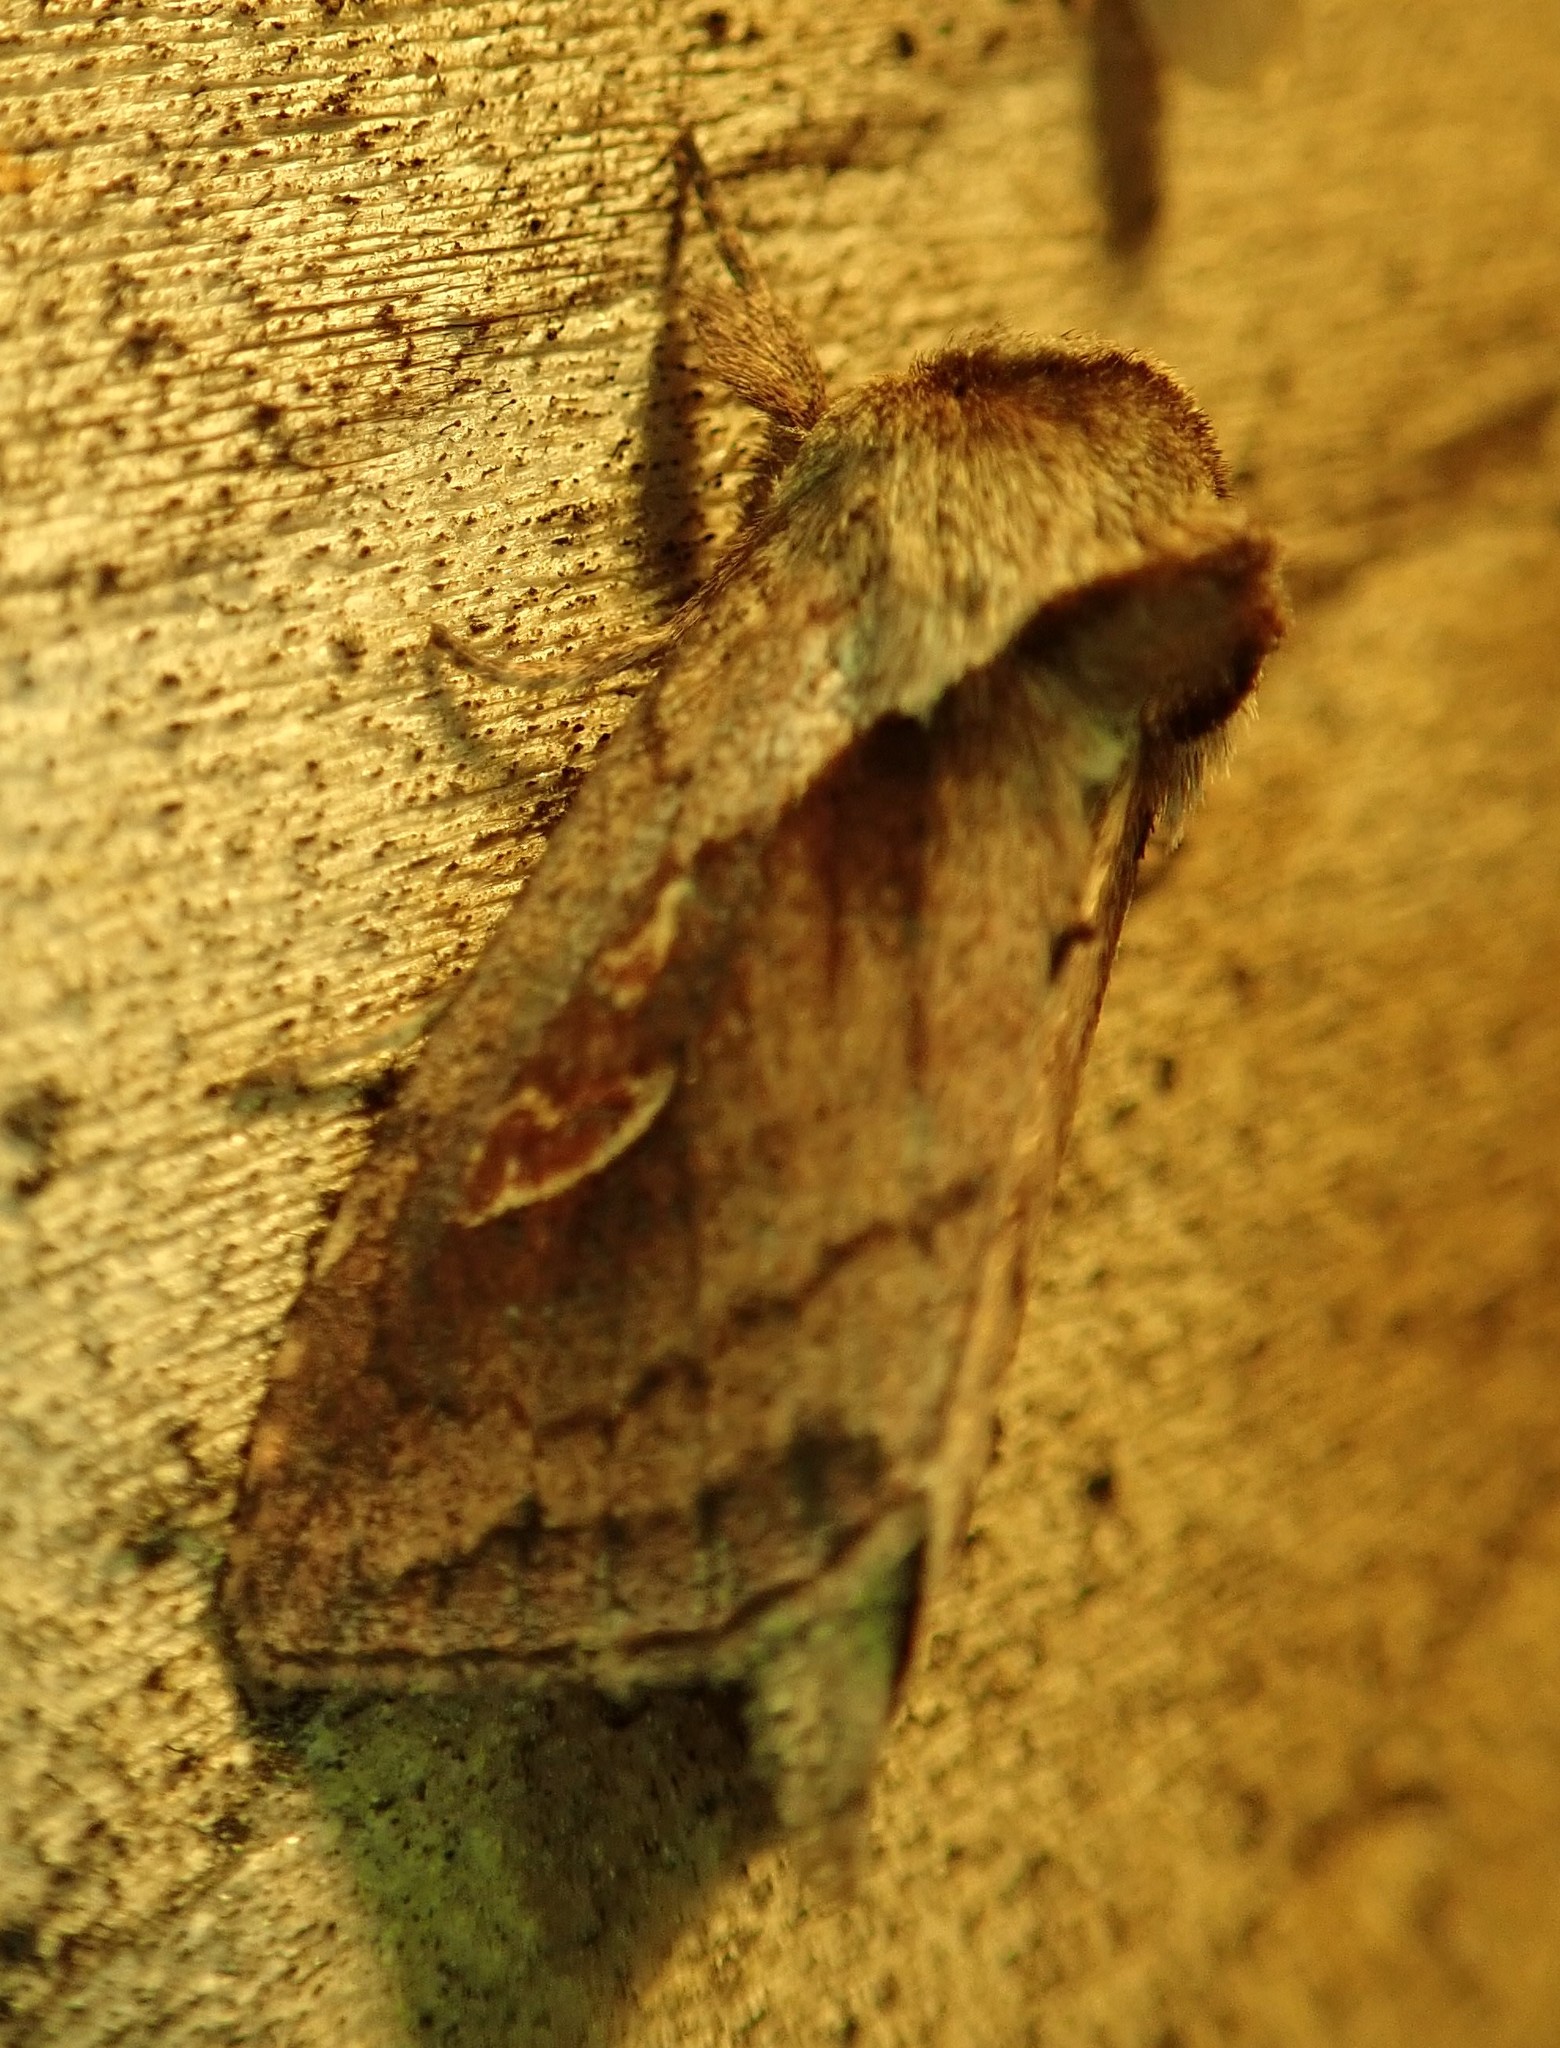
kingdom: Animalia
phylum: Arthropoda
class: Insecta
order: Lepidoptera
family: Noctuidae
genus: Bellura
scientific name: Bellura obliqua
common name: Cattail borer moth
